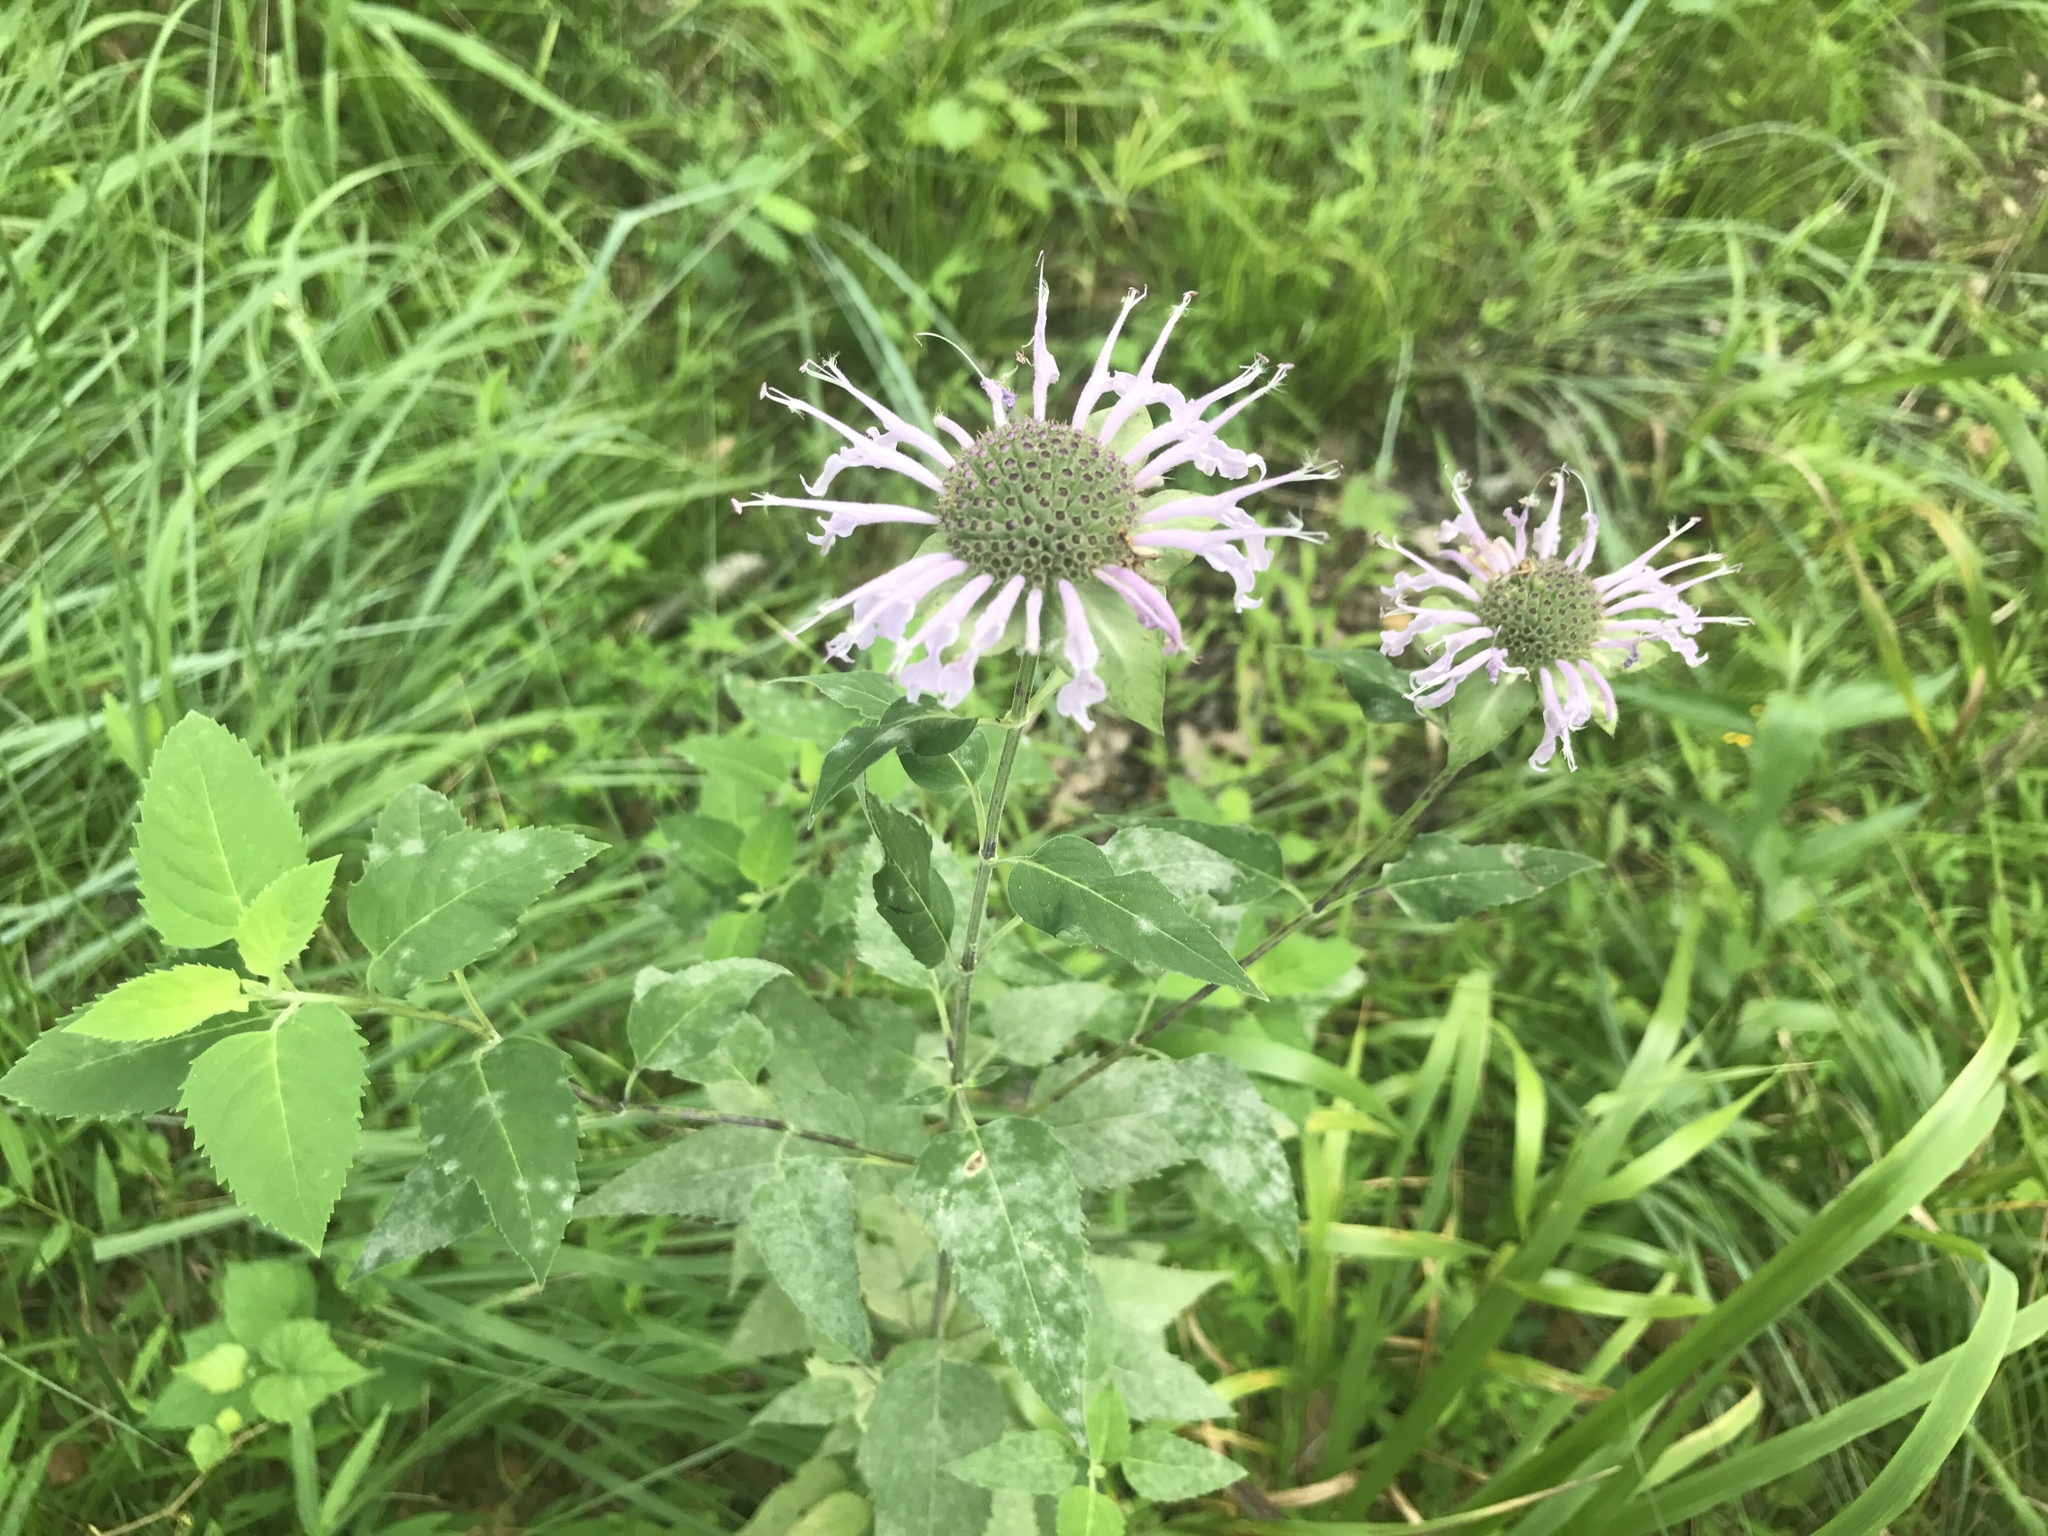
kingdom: Plantae
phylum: Tracheophyta
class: Magnoliopsida
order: Lamiales
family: Lamiaceae
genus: Monarda
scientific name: Monarda fistulosa
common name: Purple beebalm
